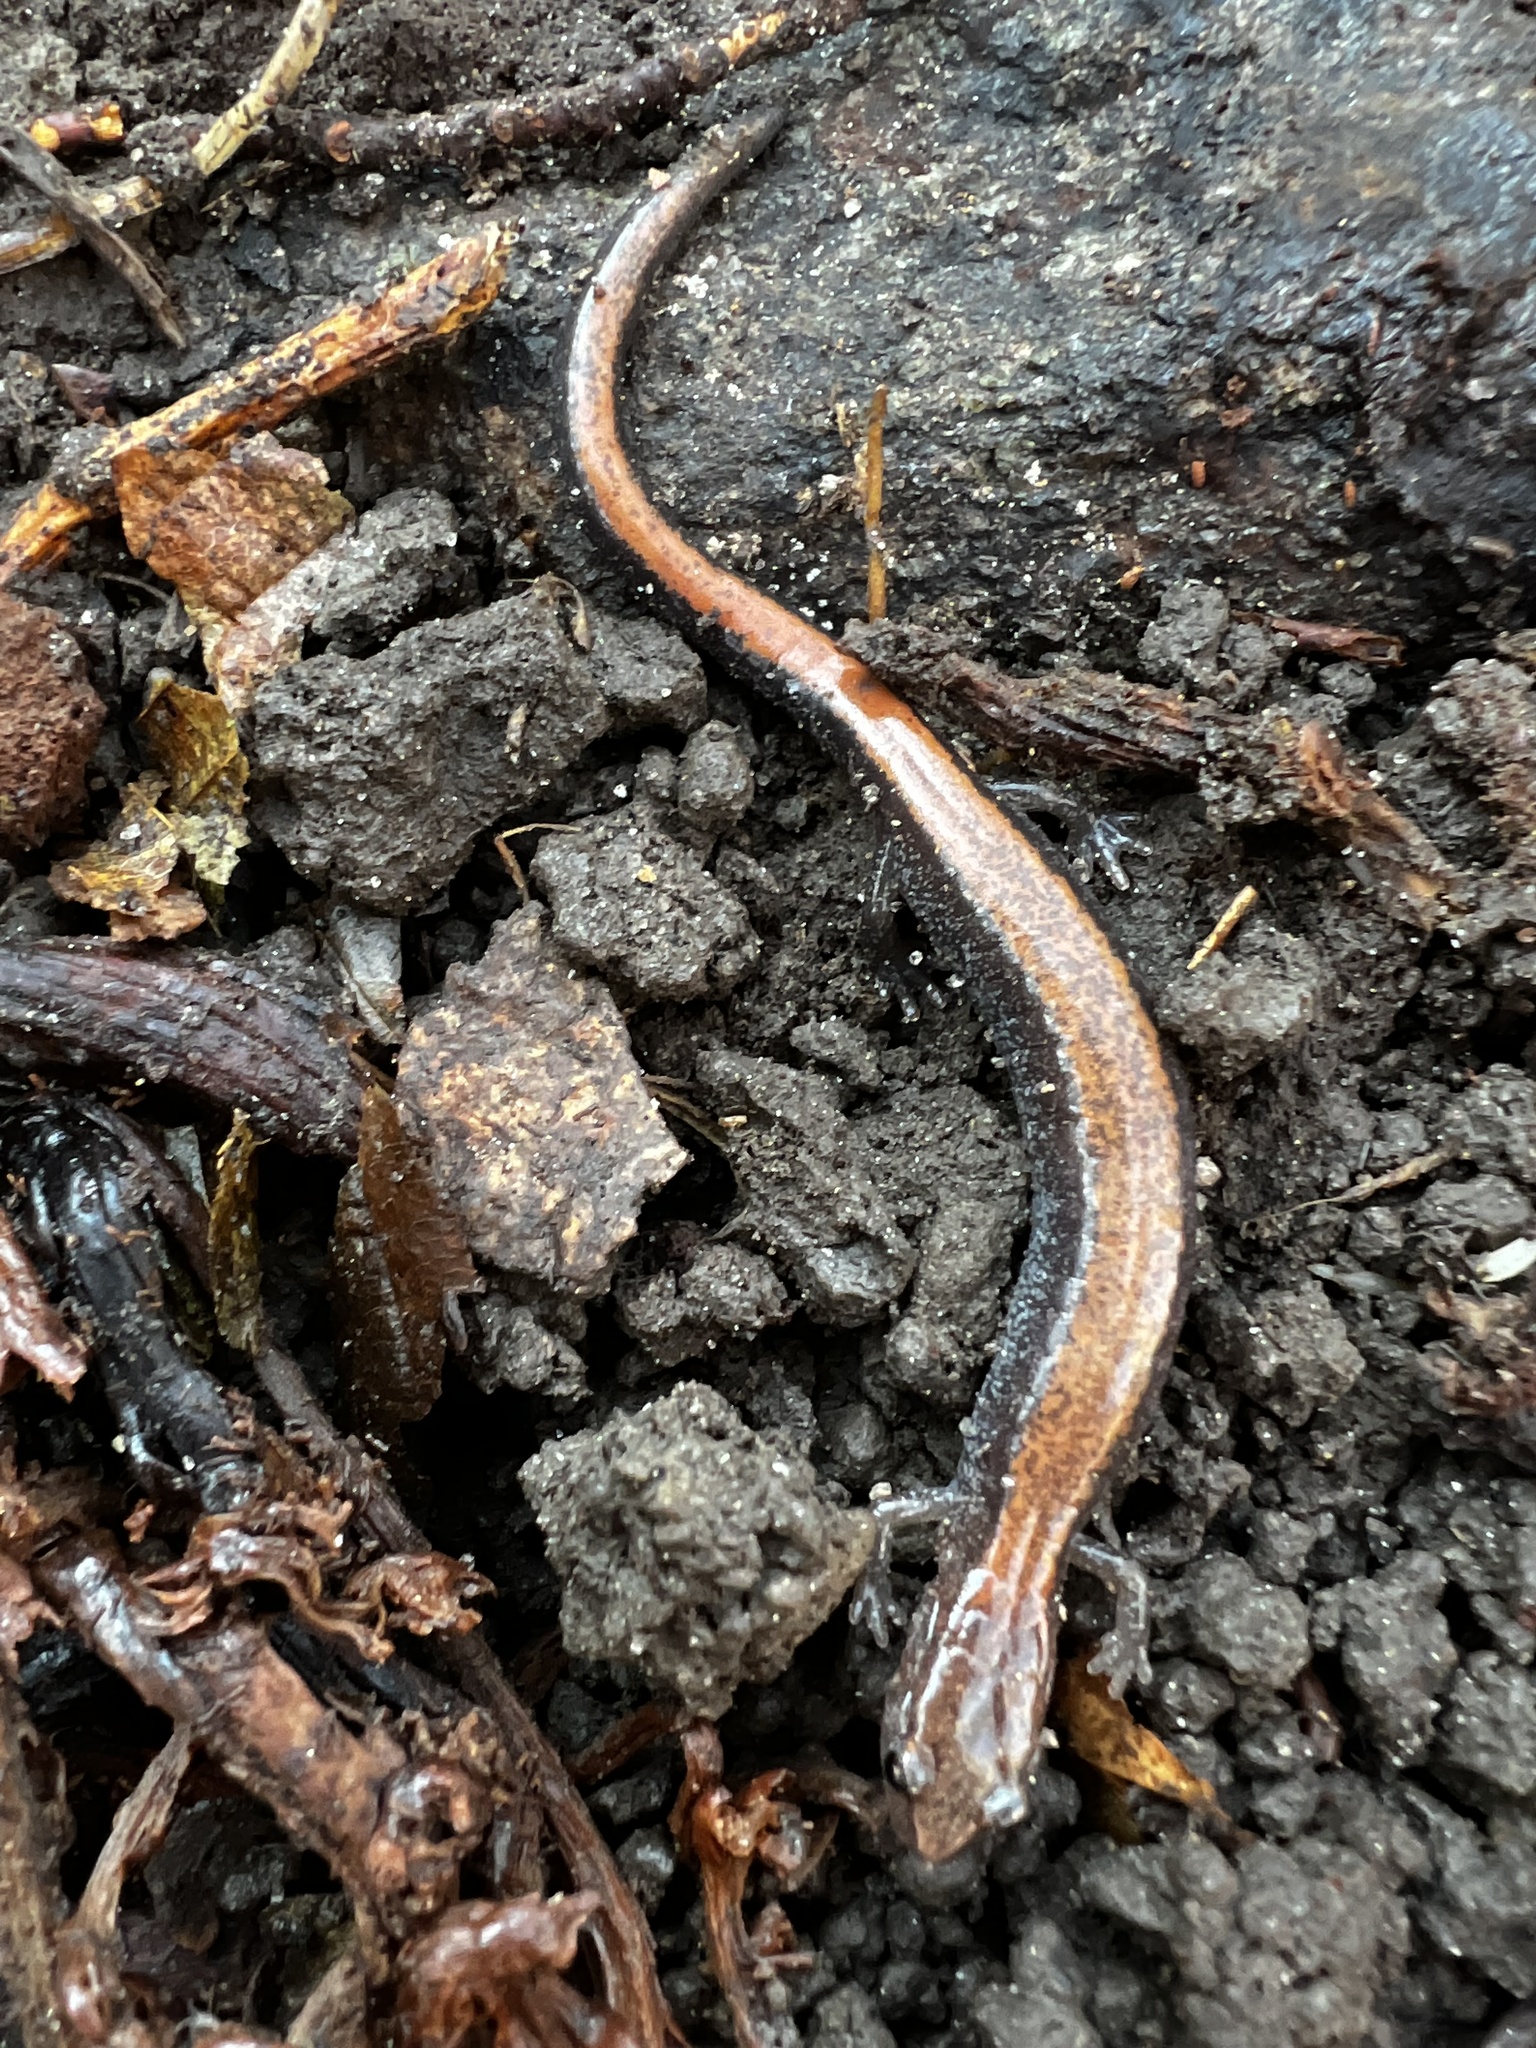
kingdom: Animalia
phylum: Chordata
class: Amphibia
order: Caudata
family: Plethodontidae
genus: Plethodon
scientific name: Plethodon cinereus
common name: Redback salamander
